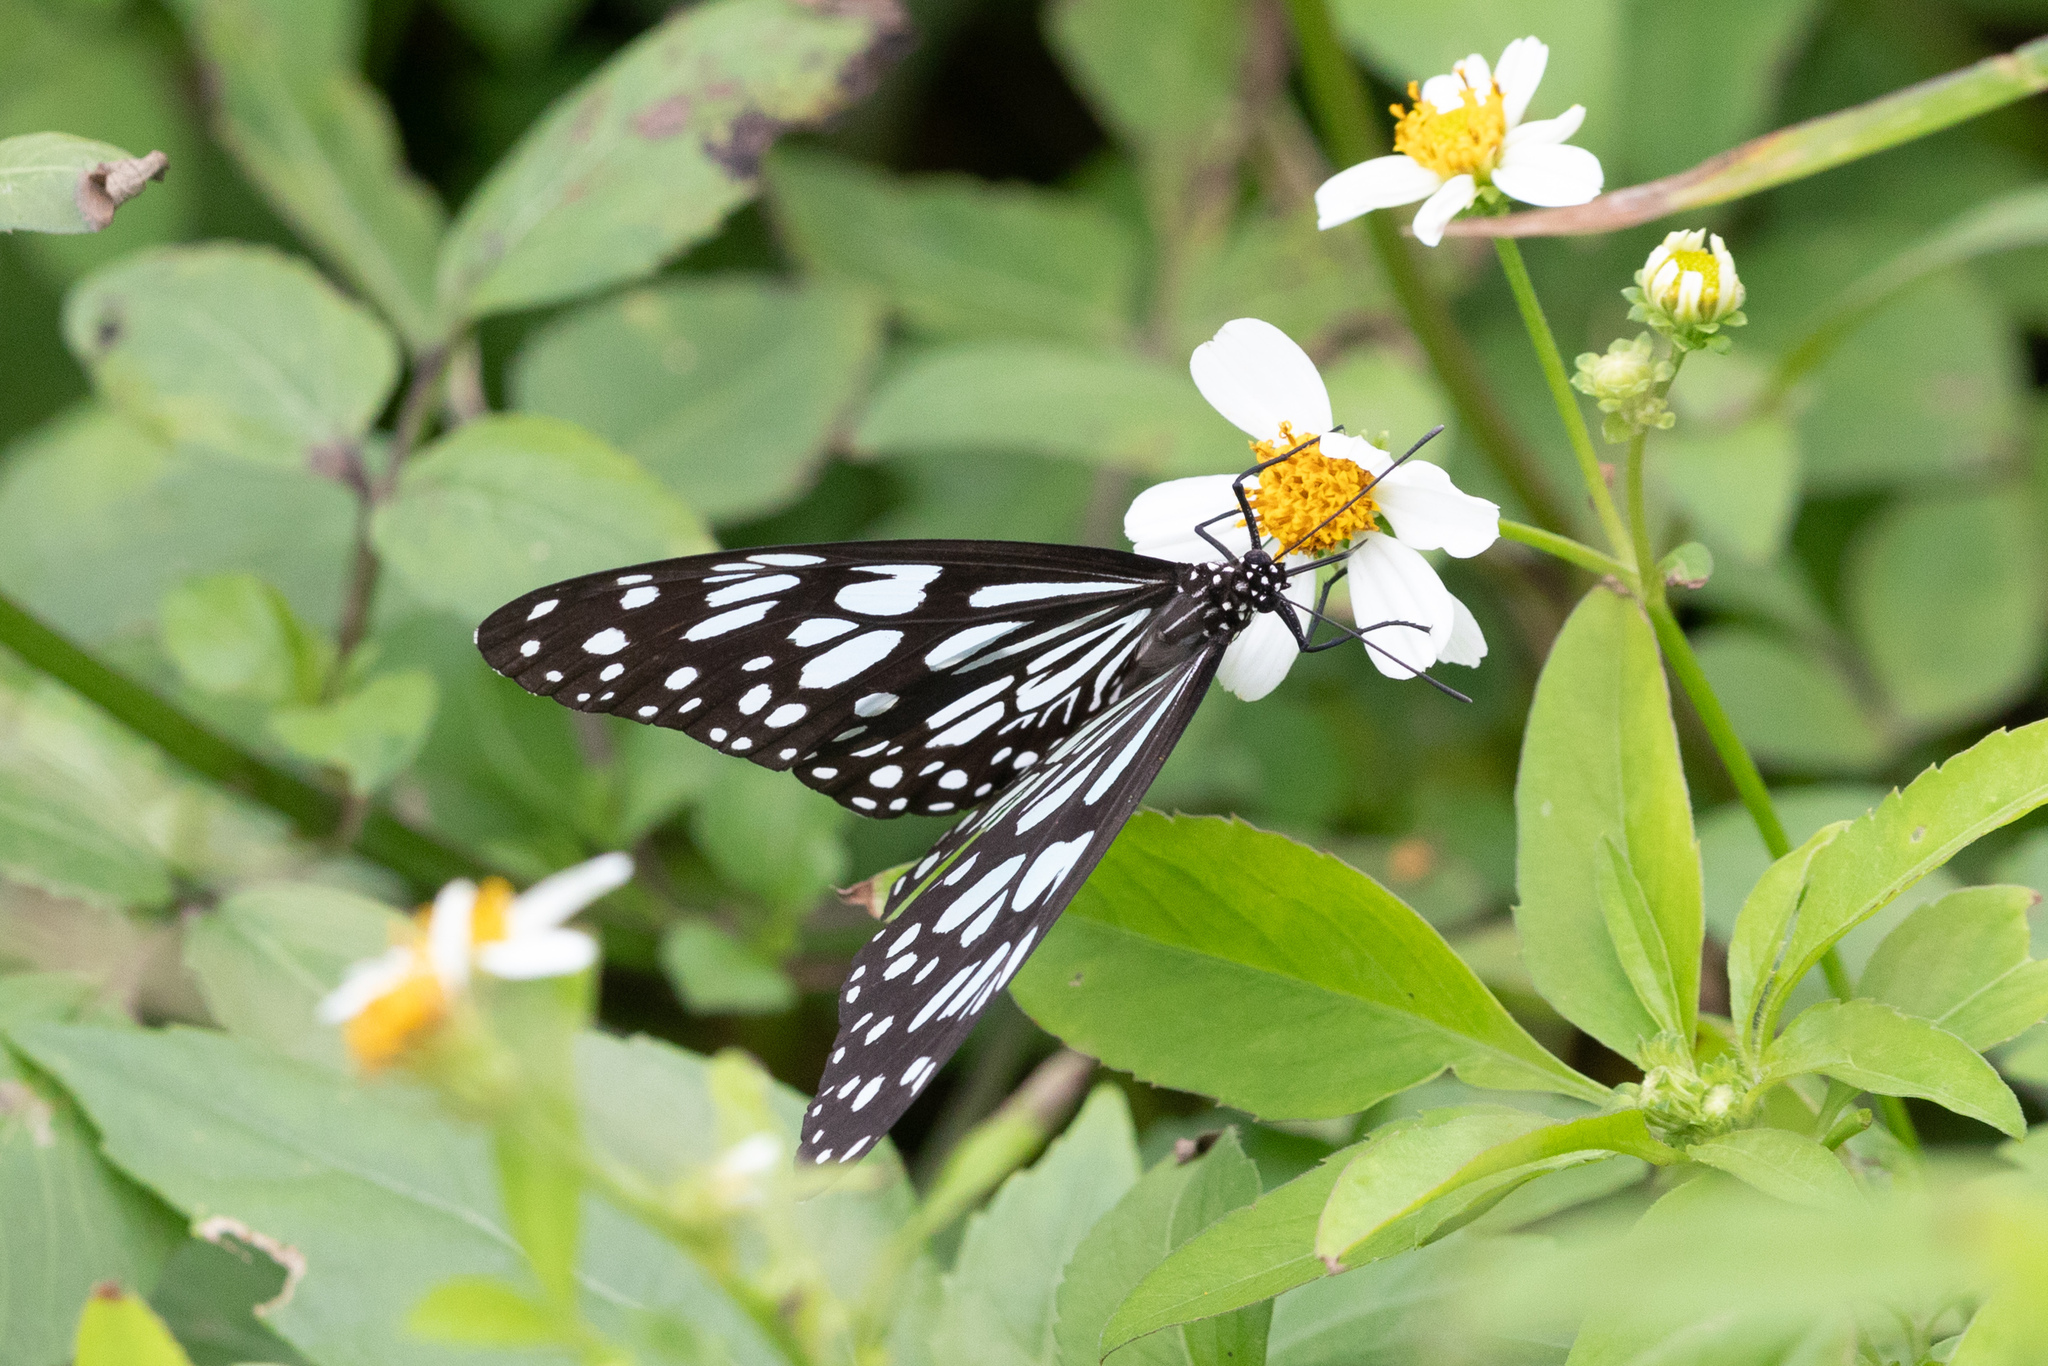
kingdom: Animalia
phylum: Arthropoda
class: Insecta
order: Lepidoptera
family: Nymphalidae
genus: Tirumala
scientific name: Tirumala limniace
